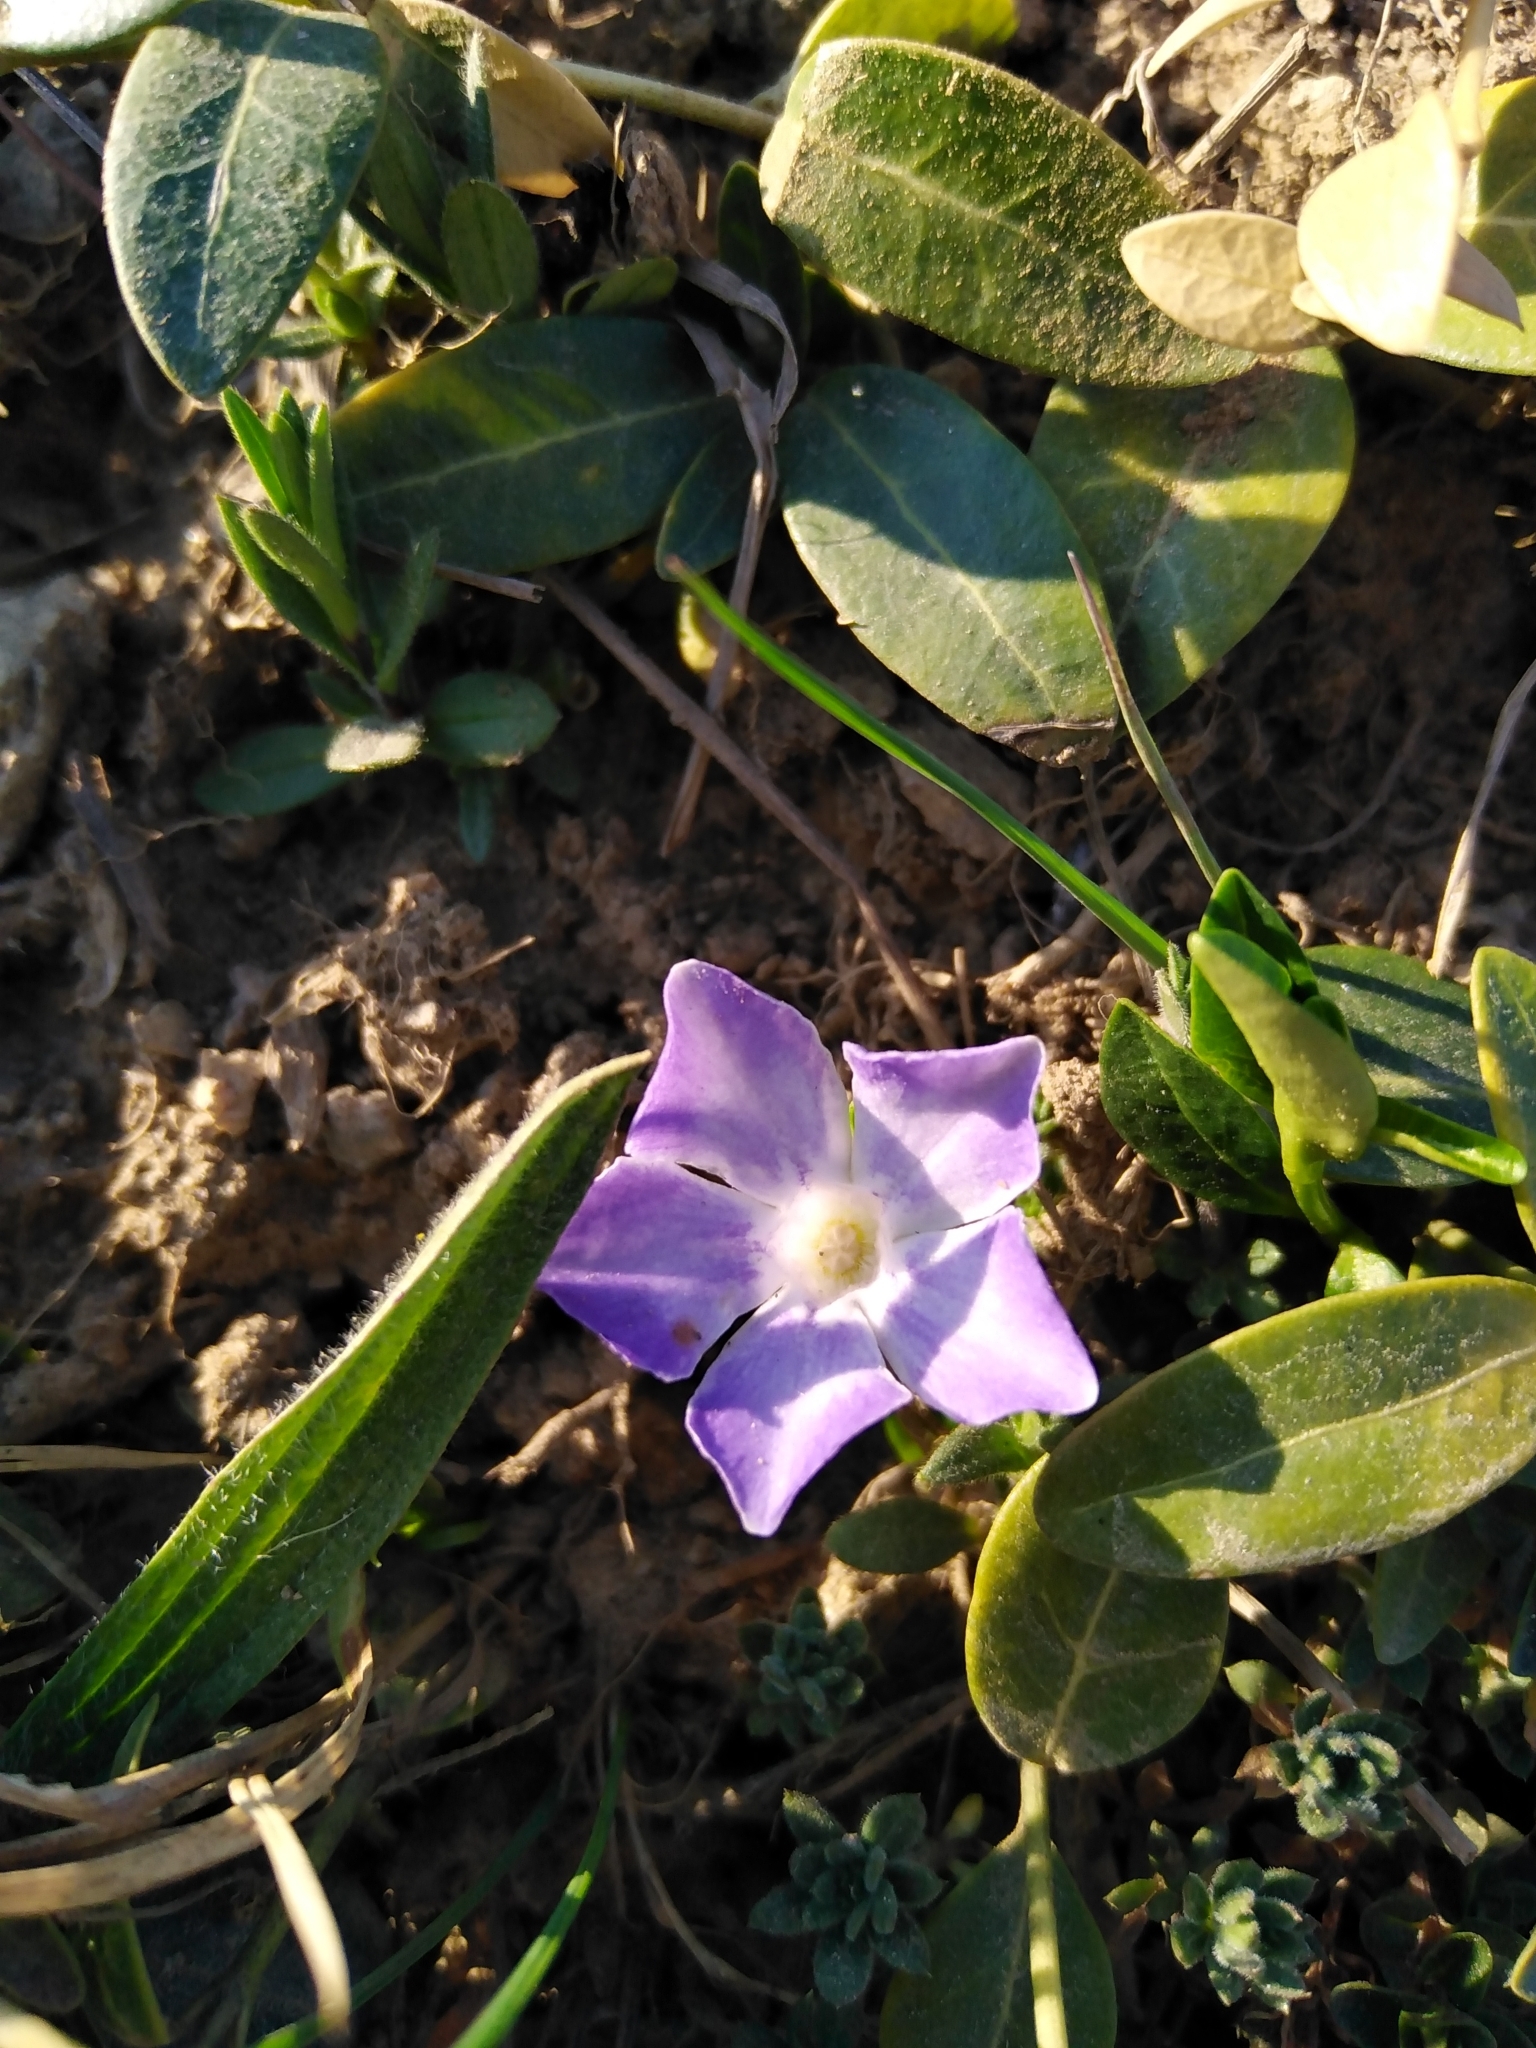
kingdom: Plantae
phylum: Tracheophyta
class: Magnoliopsida
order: Gentianales
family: Apocynaceae
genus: Vinca
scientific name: Vinca minor
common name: Lesser periwinkle
